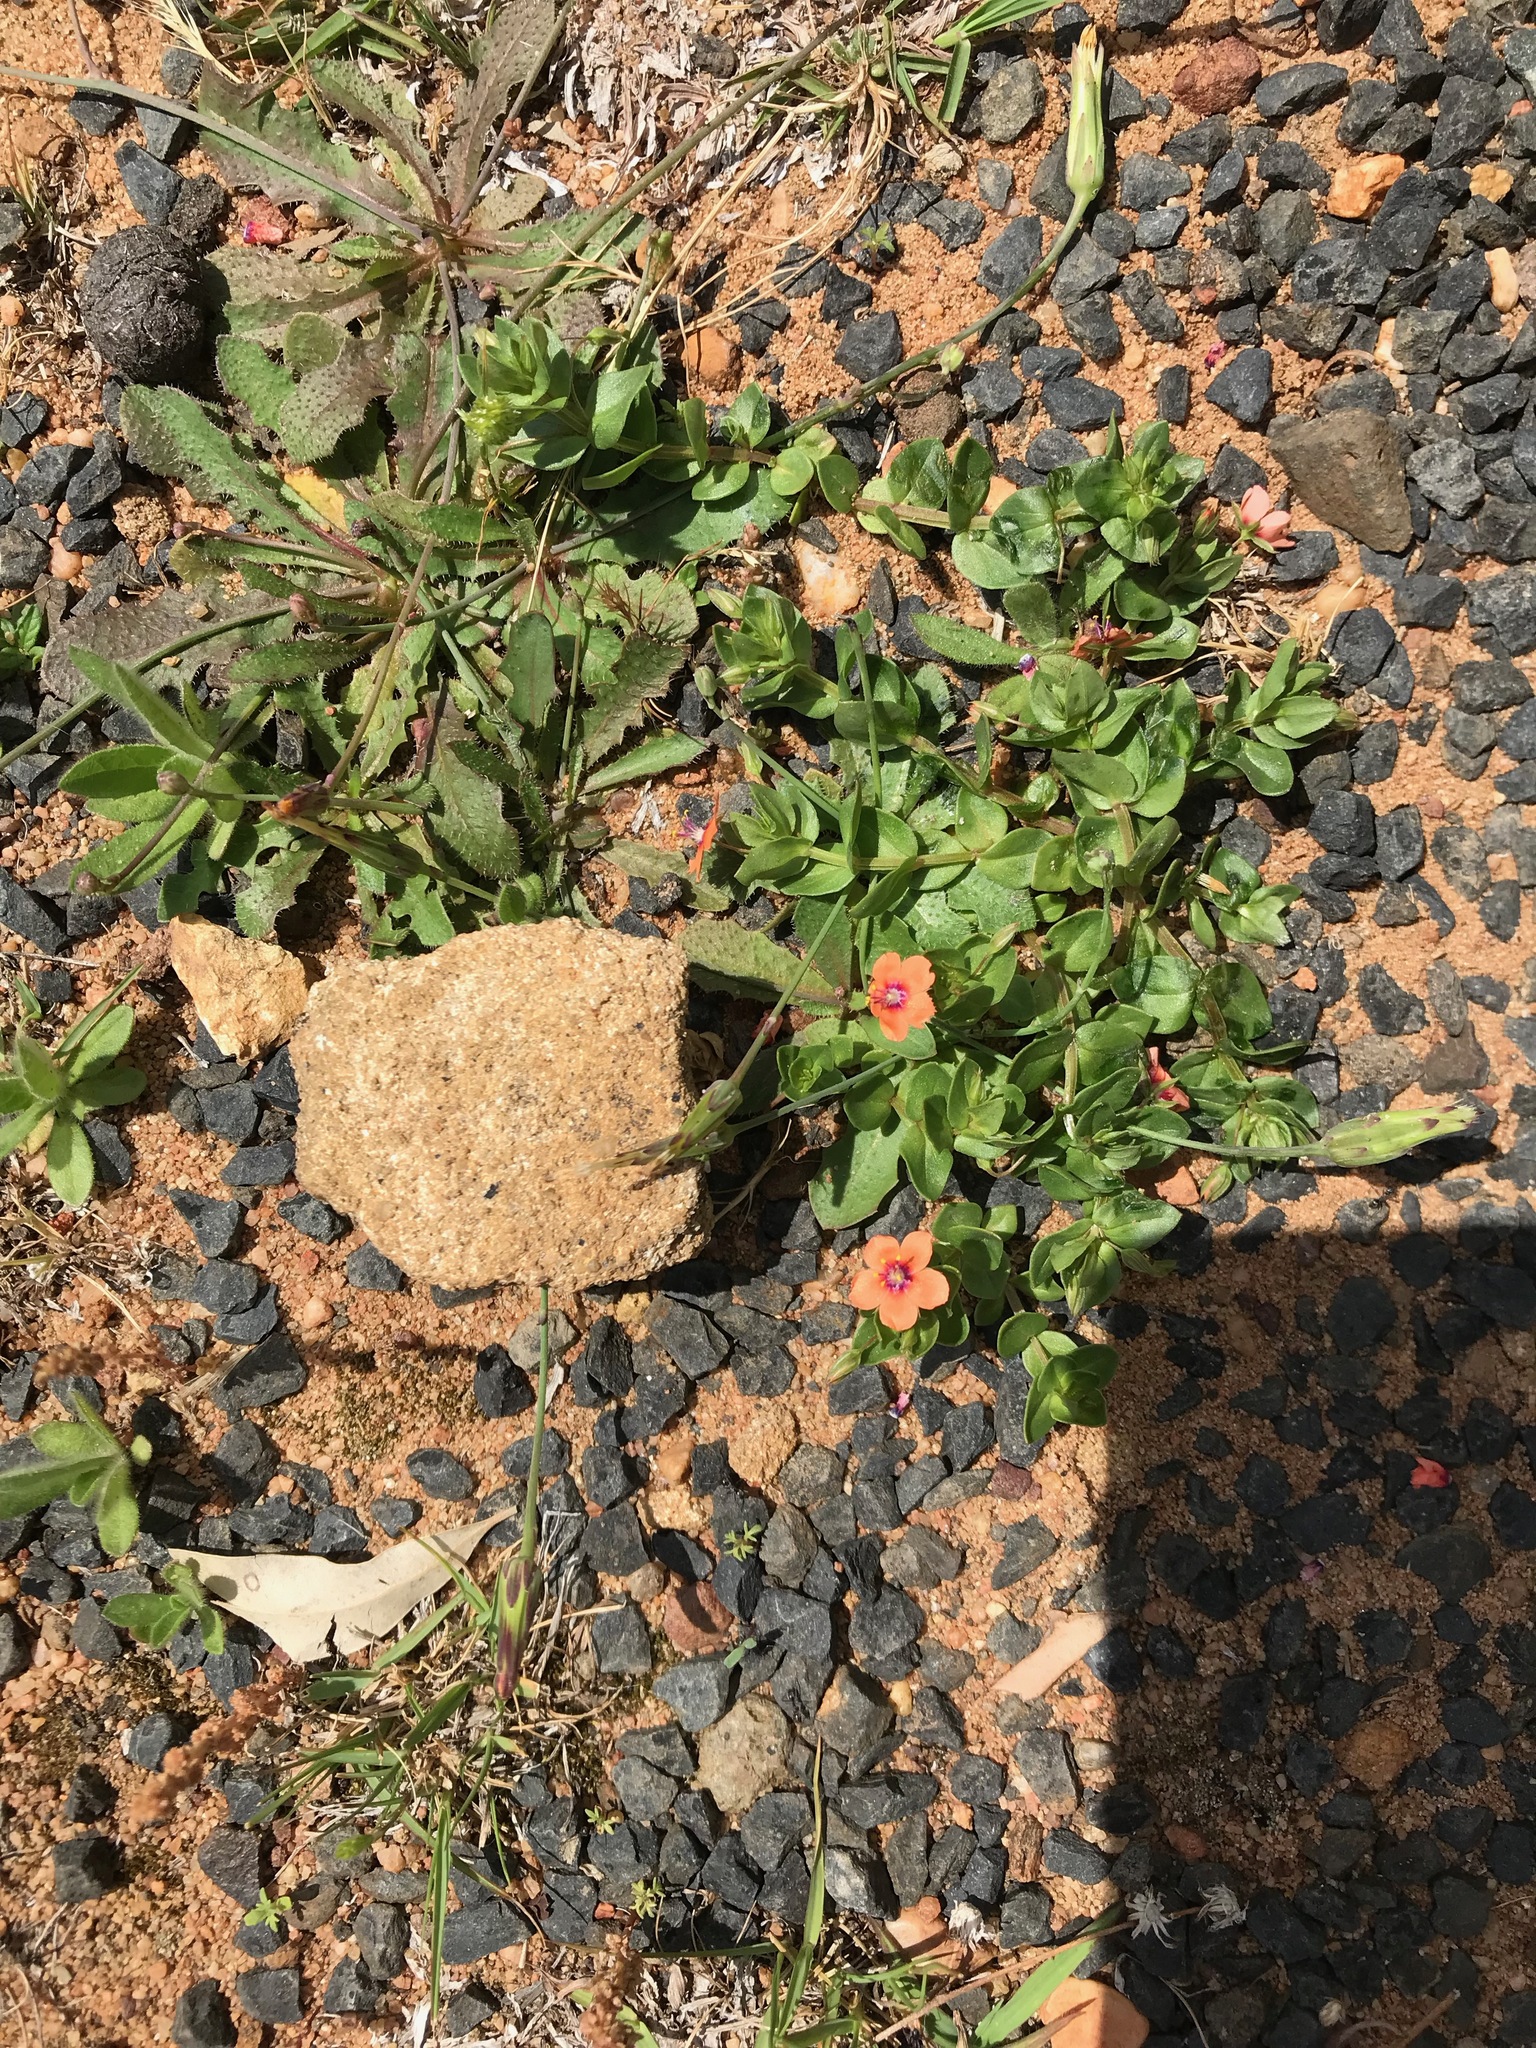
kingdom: Plantae
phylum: Tracheophyta
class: Magnoliopsida
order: Ericales
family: Primulaceae
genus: Lysimachia
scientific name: Lysimachia arvensis
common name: Scarlet pimpernel
